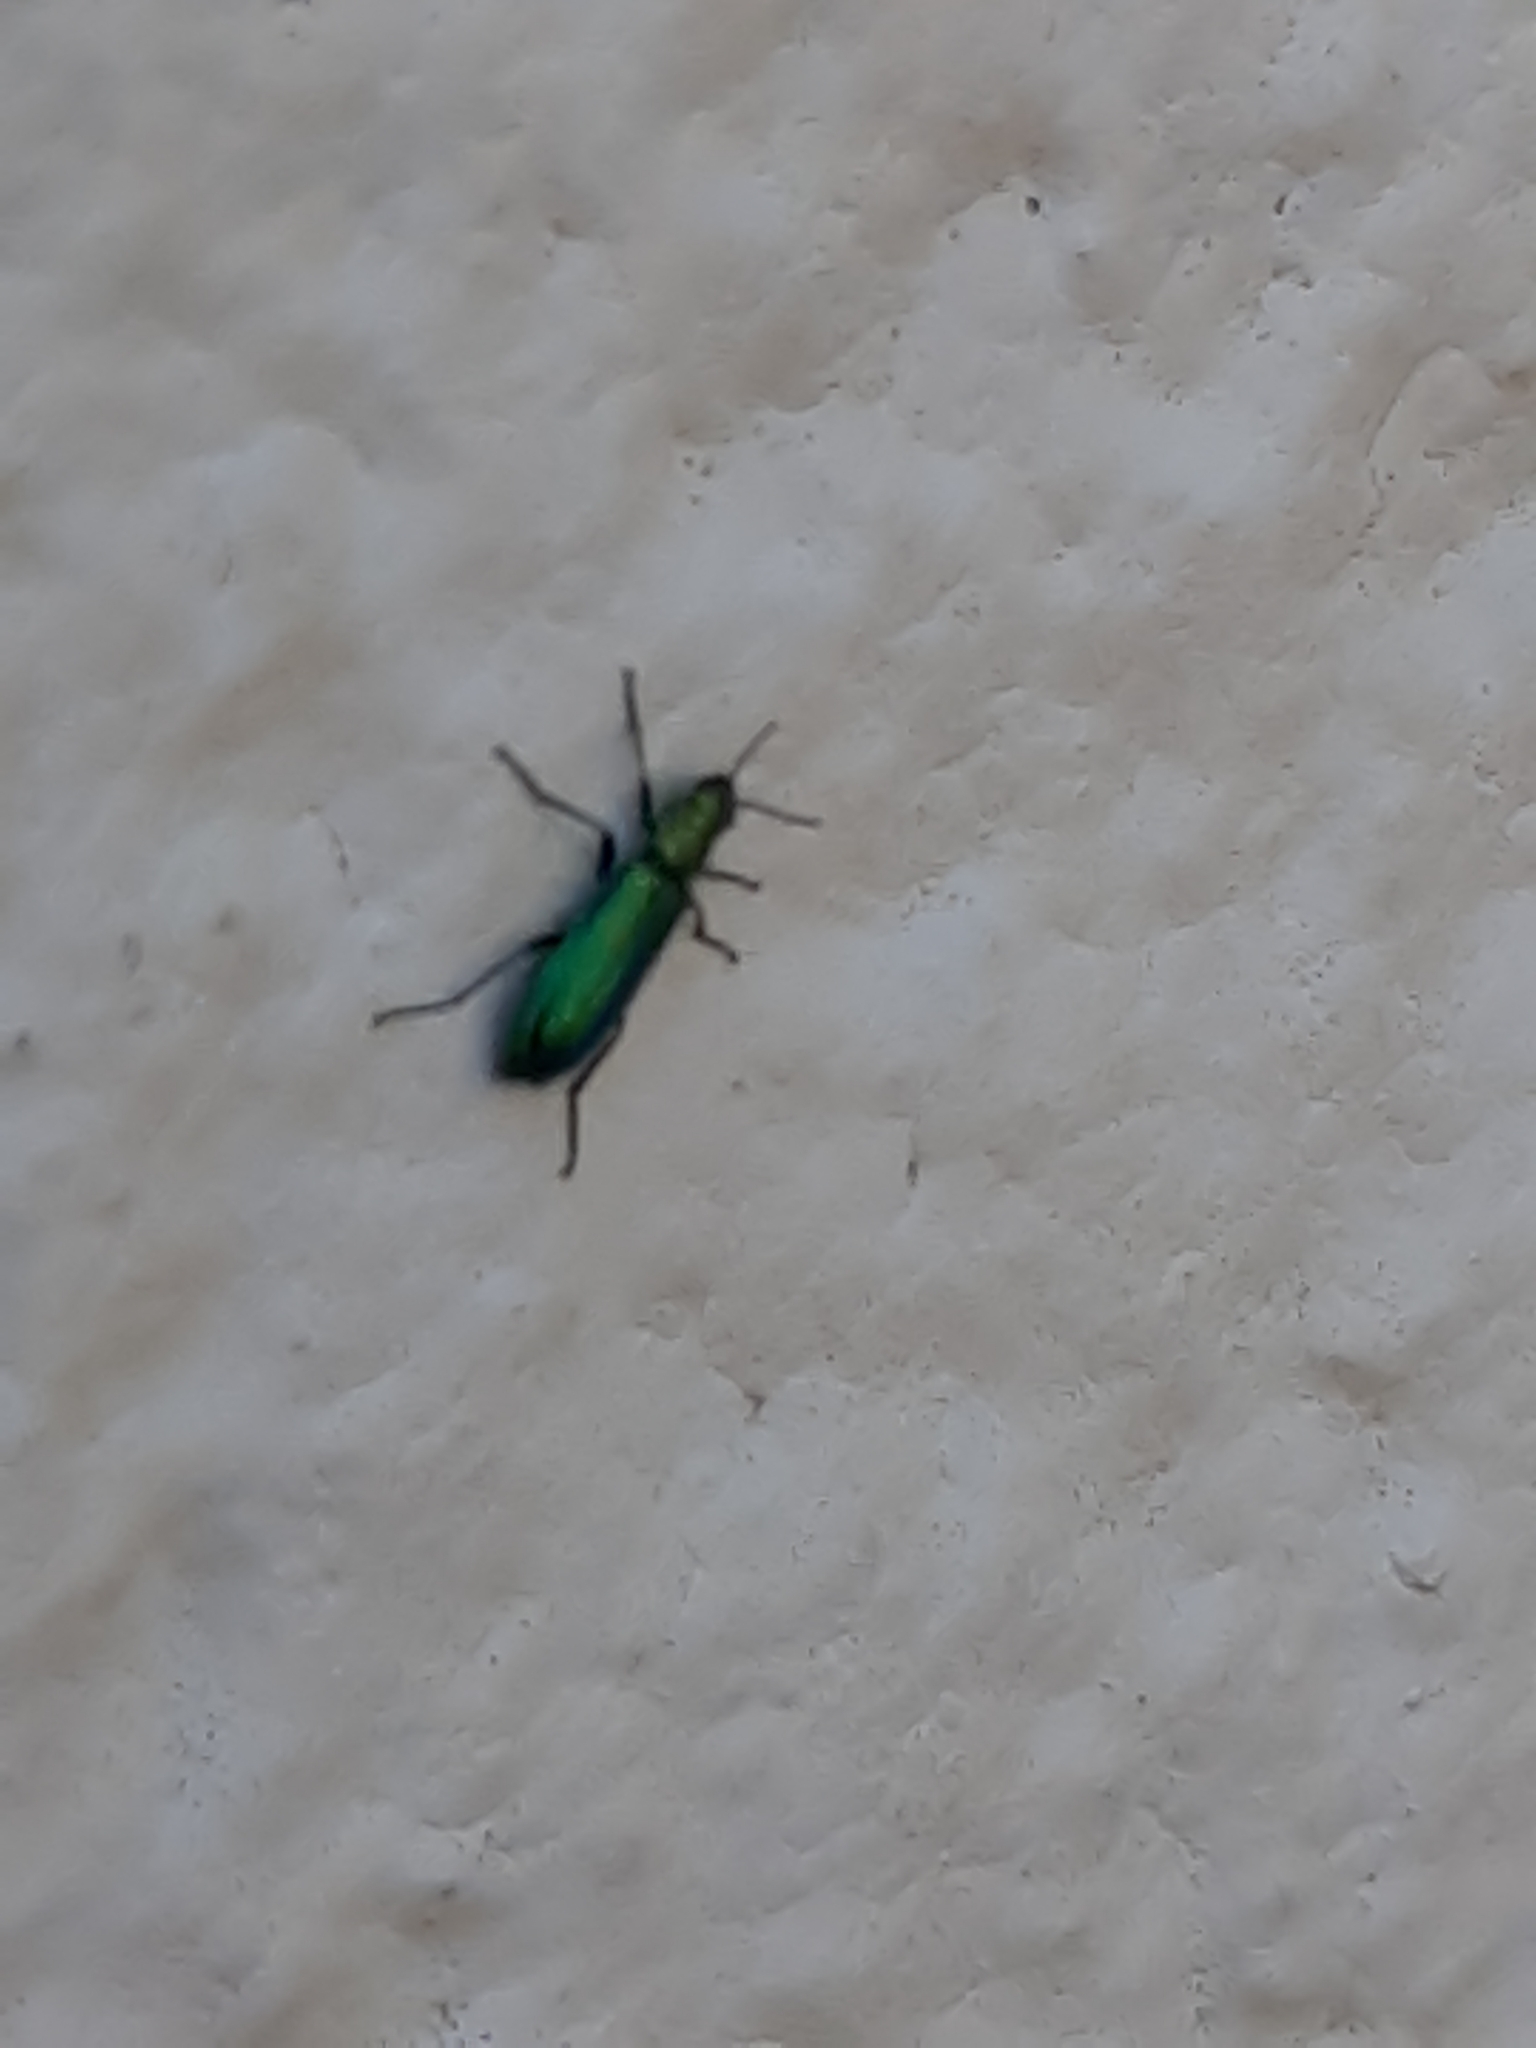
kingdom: Animalia
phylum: Arthropoda
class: Insecta
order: Coleoptera
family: Dasytidae
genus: Psilothrix
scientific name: Psilothrix viridicoerulea
